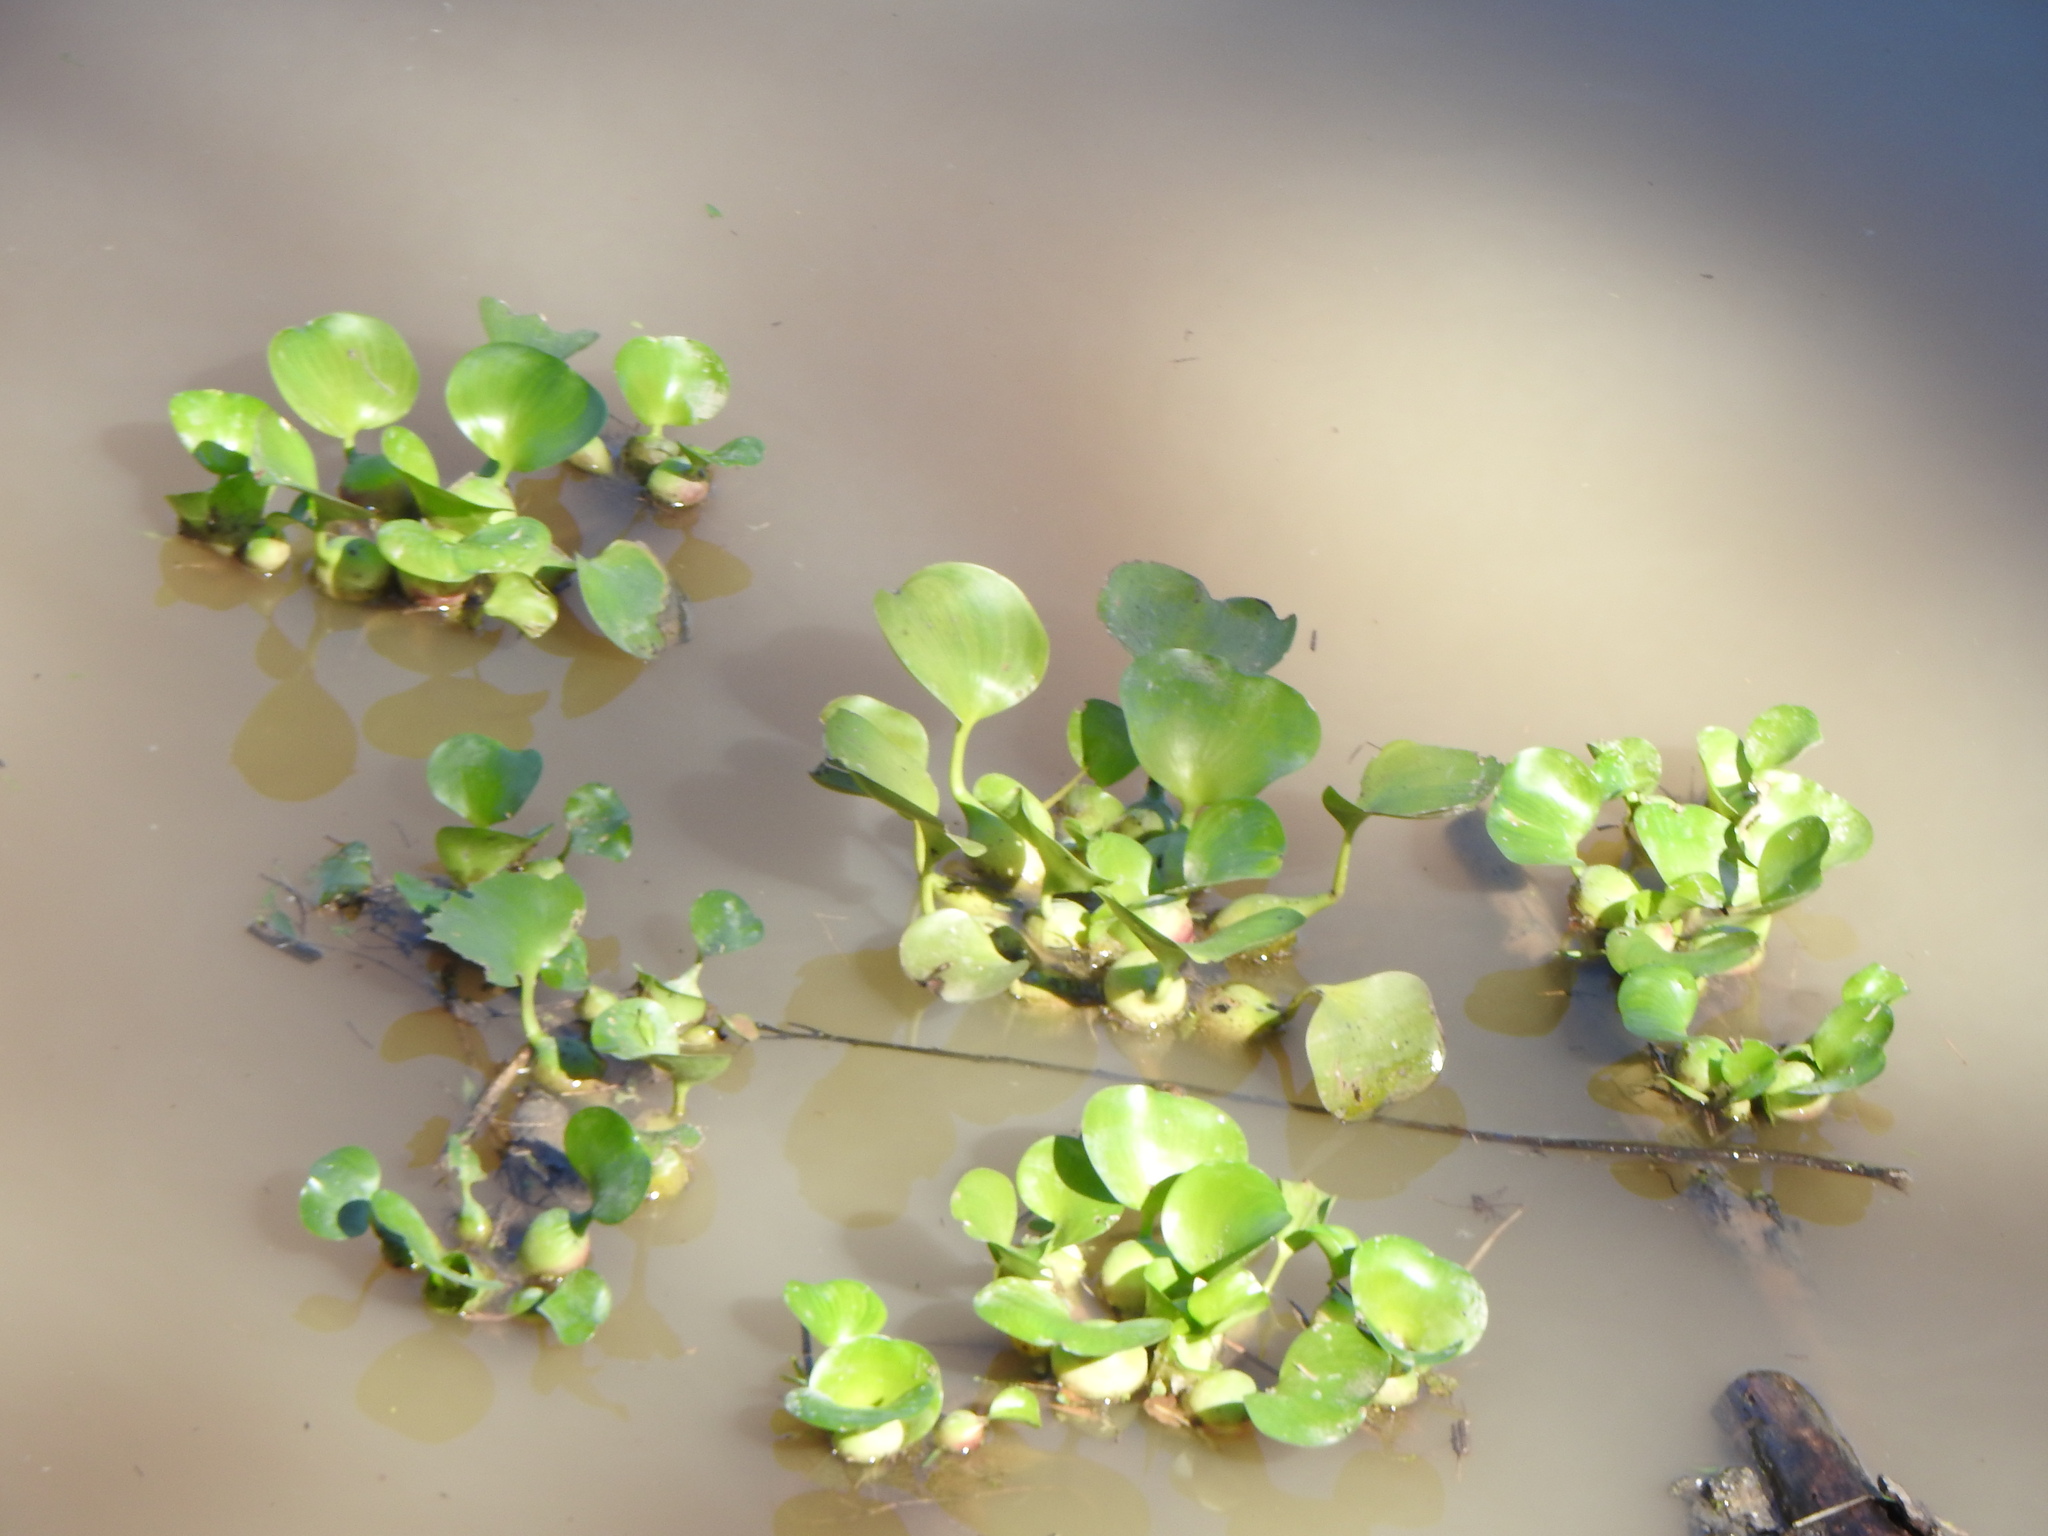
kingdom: Plantae
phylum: Tracheophyta
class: Liliopsida
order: Commelinales
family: Pontederiaceae
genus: Pontederia
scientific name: Pontederia crassipes
